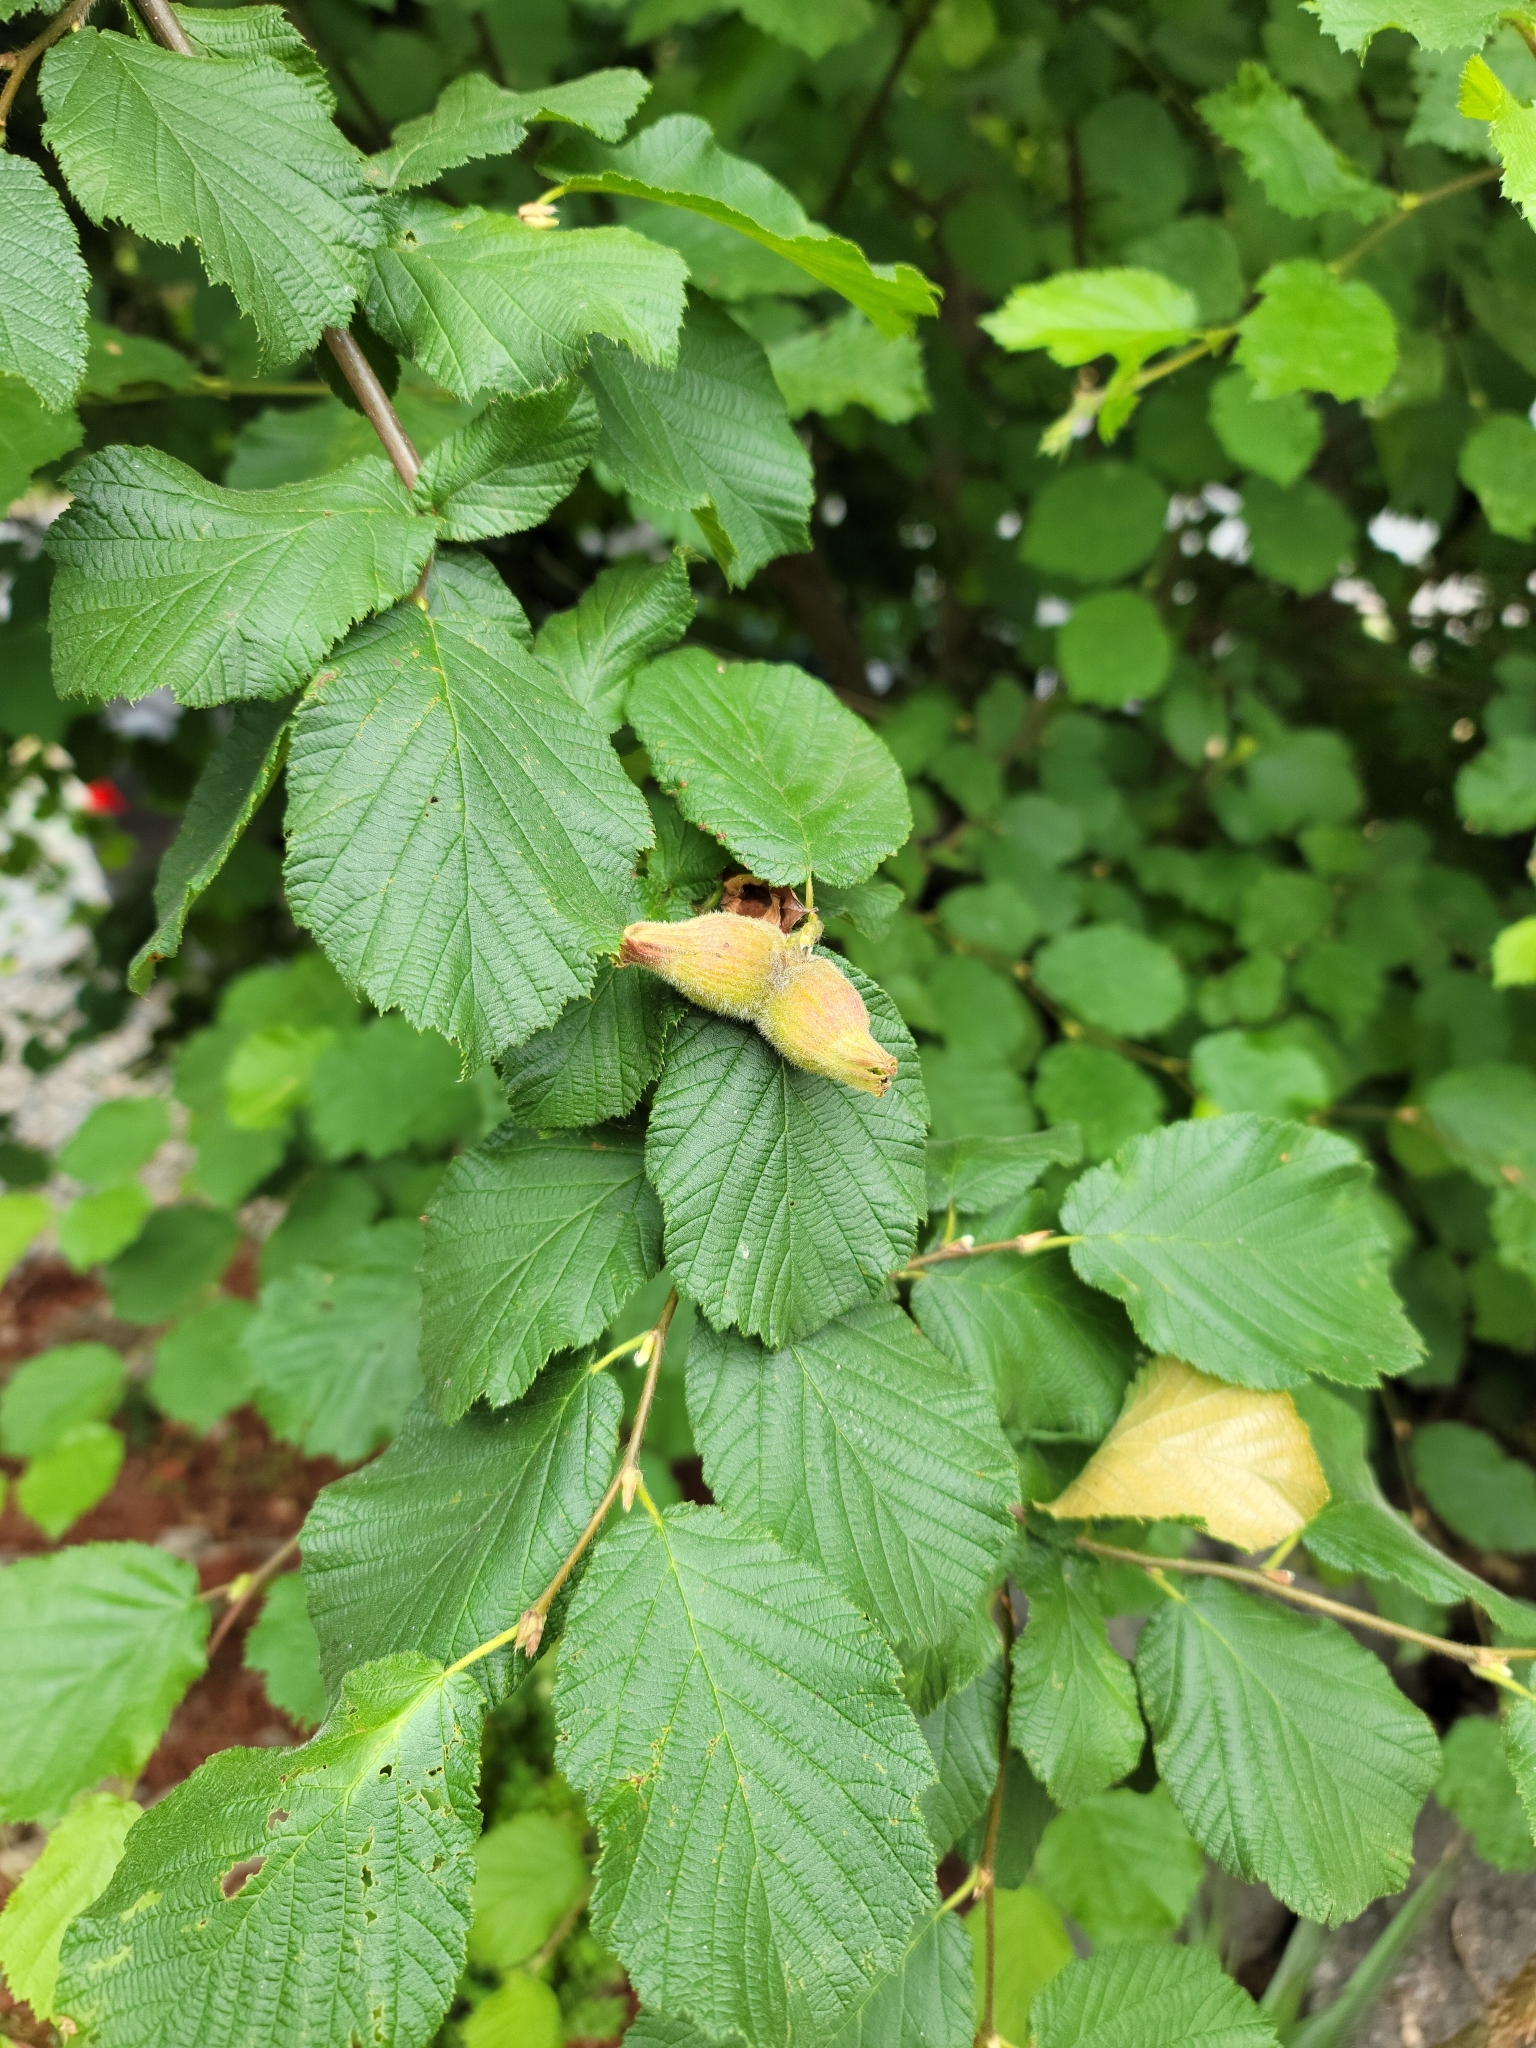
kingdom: Plantae
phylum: Tracheophyta
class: Magnoliopsida
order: Fagales
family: Betulaceae
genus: Corylus
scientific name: Corylus cornuta
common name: Beaked hazel
